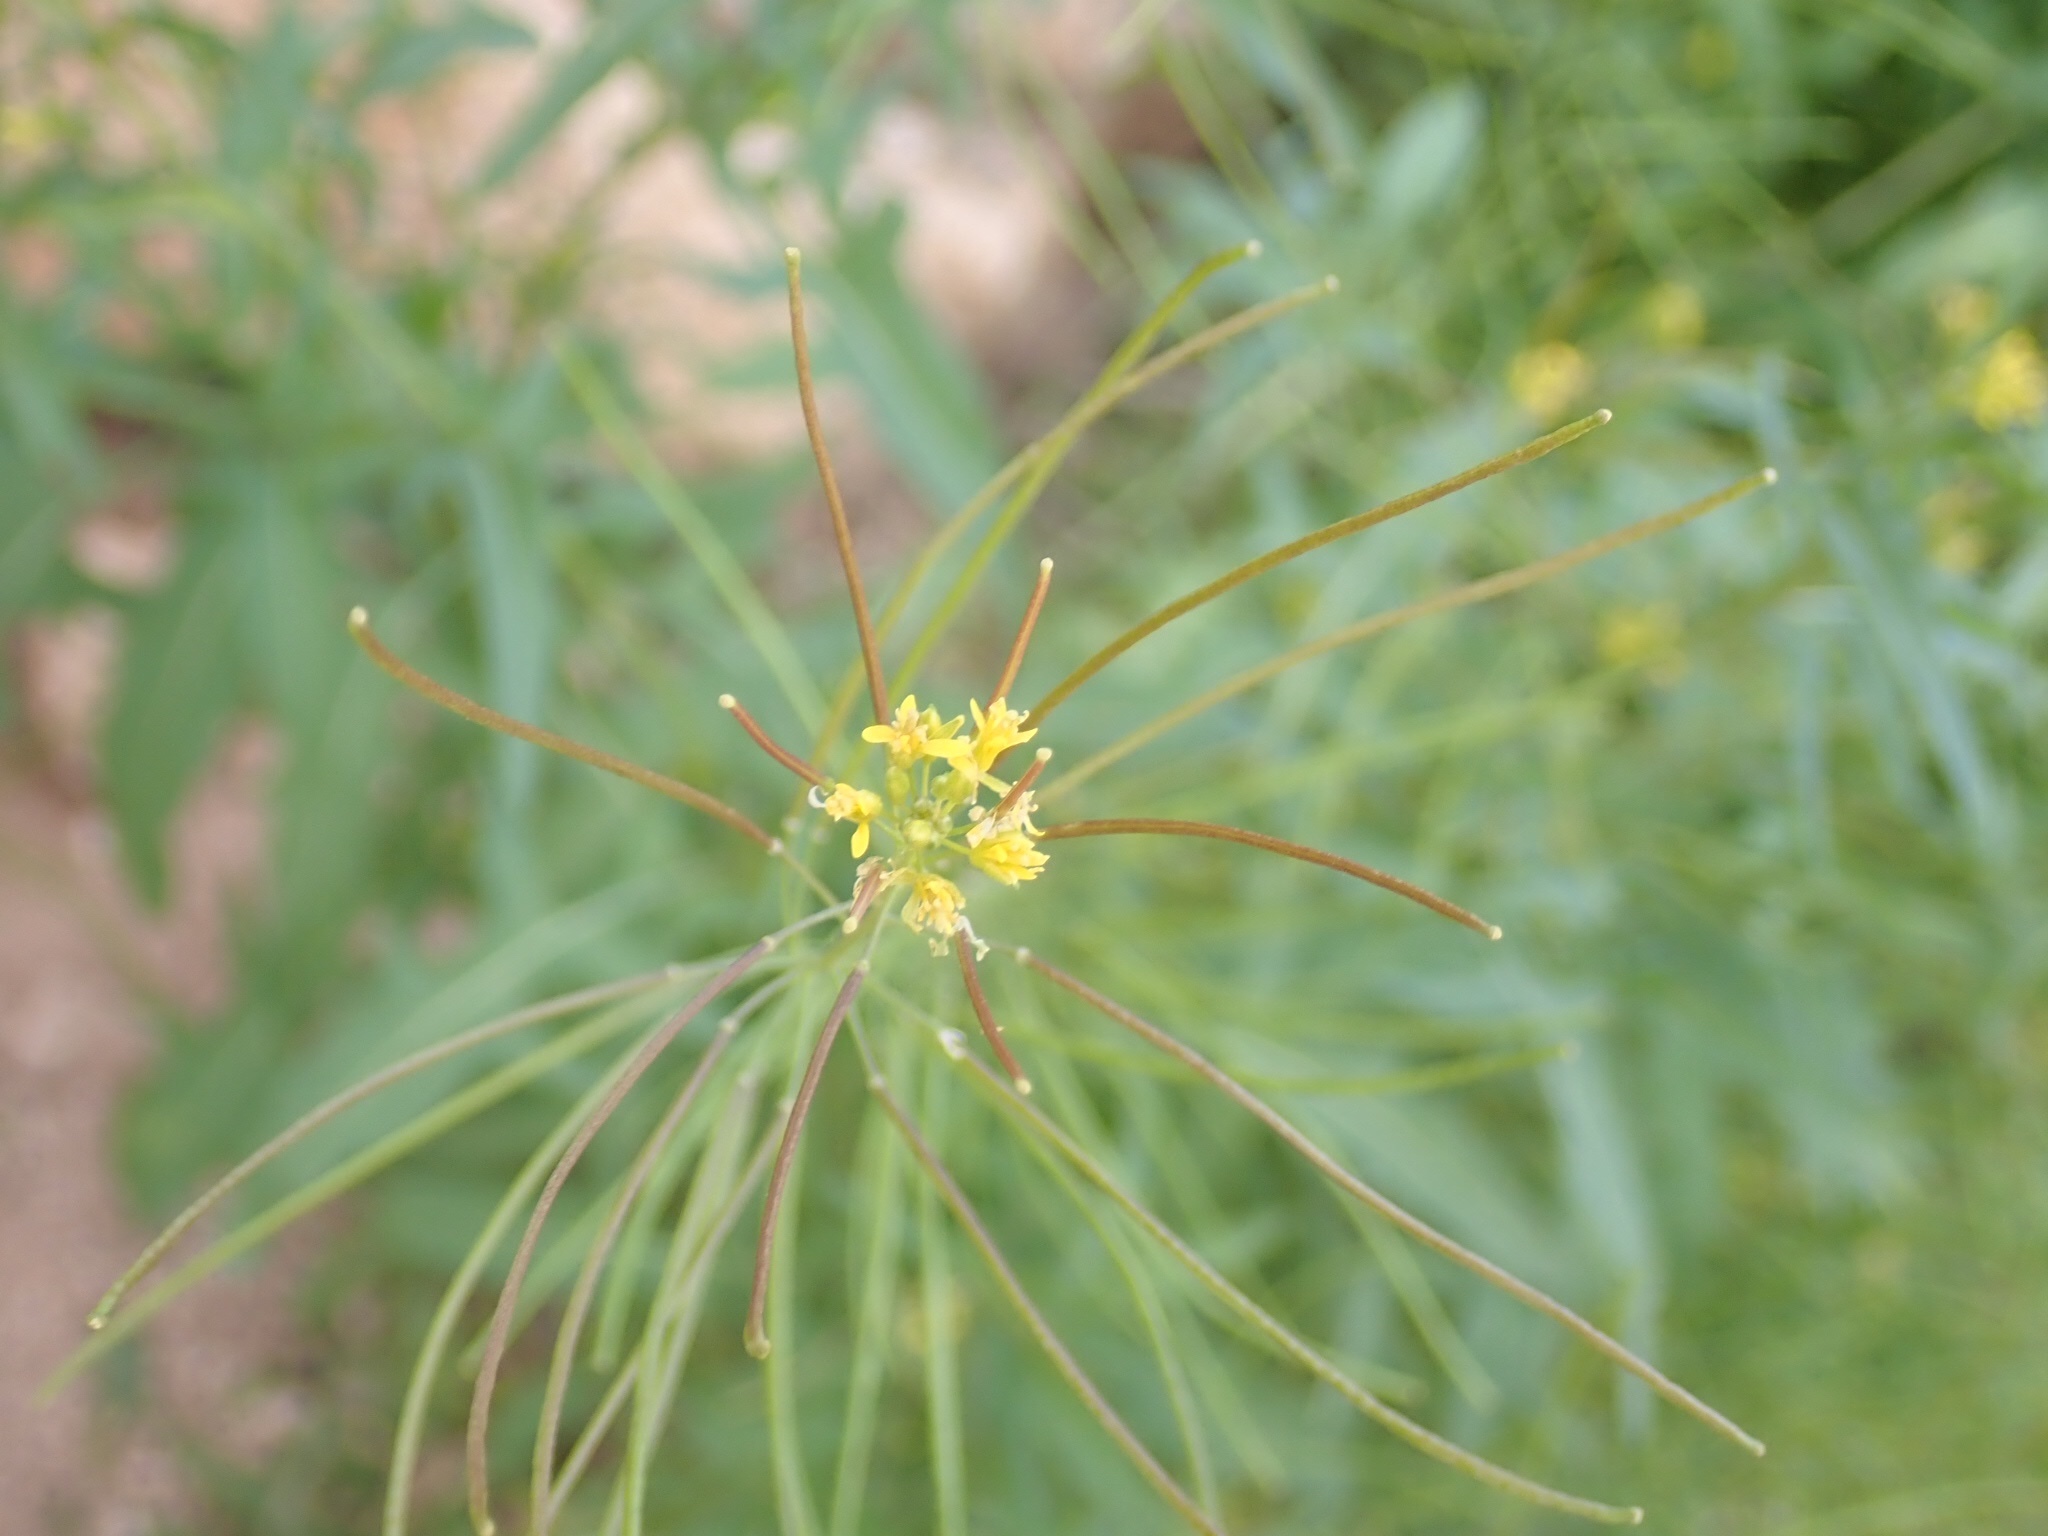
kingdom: Plantae
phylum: Tracheophyta
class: Magnoliopsida
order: Brassicales
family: Brassicaceae
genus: Sisymbrium
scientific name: Sisymbrium irio
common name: London rocket
